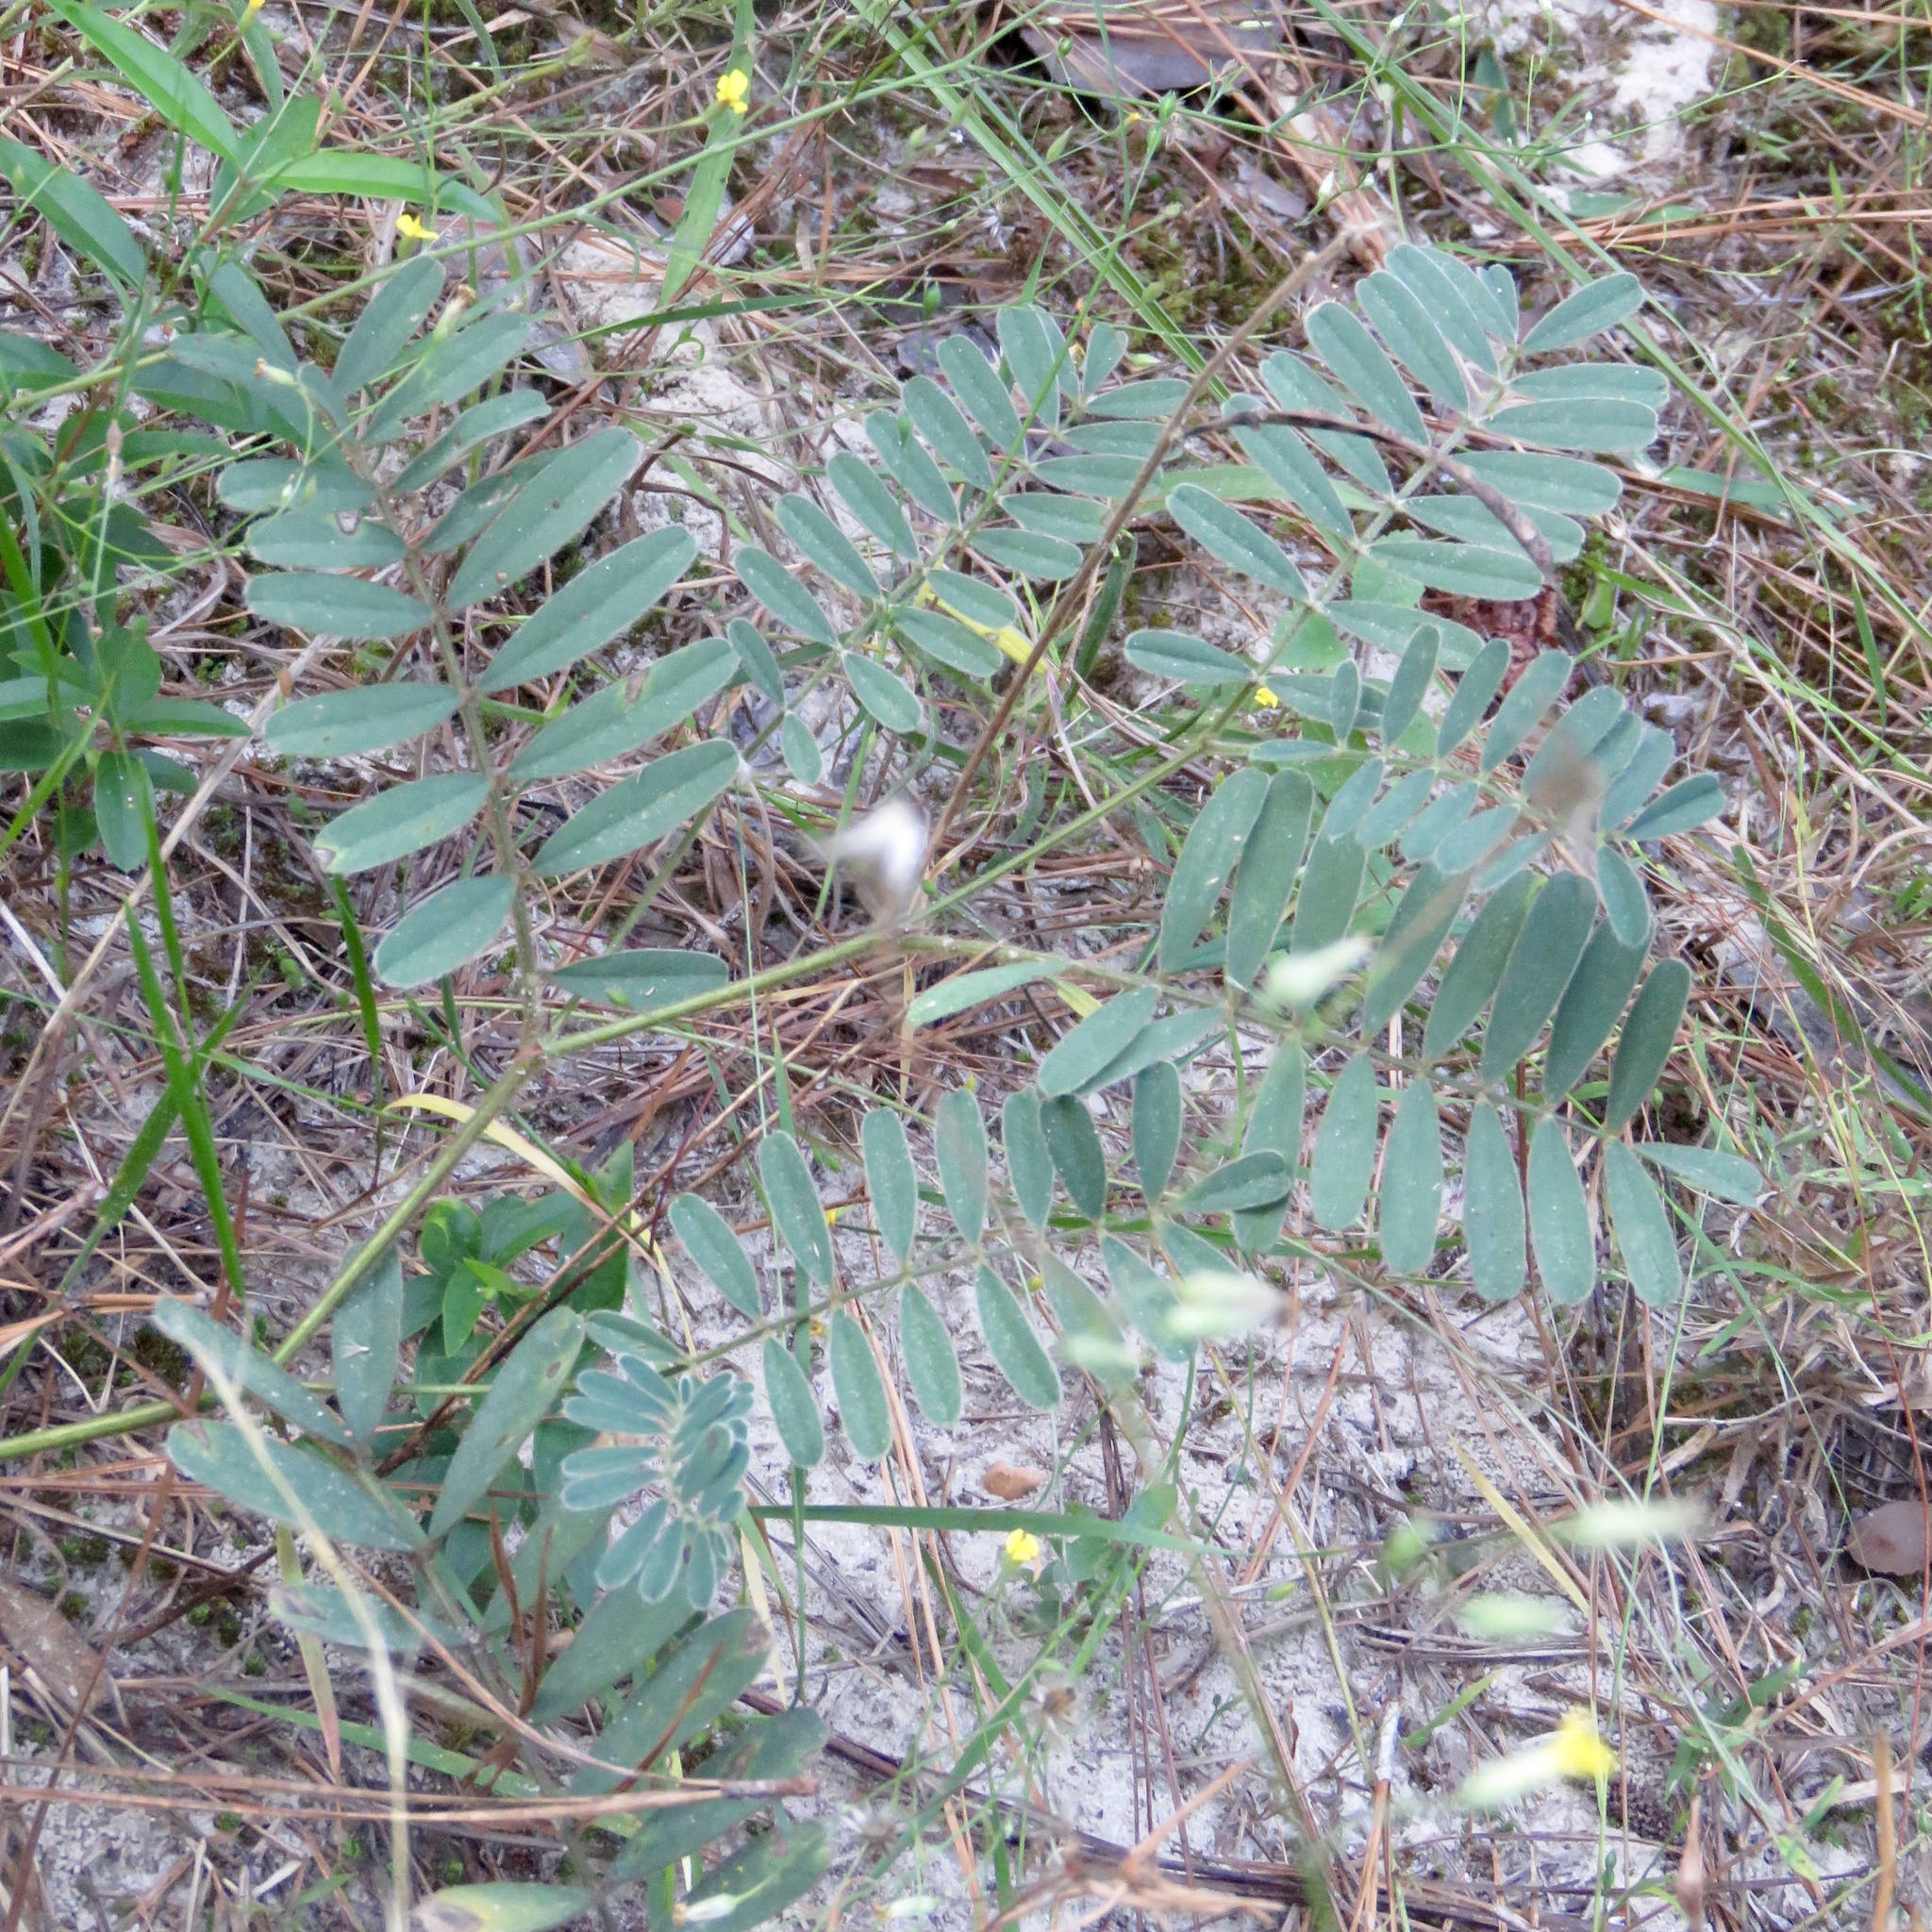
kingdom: Plantae
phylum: Tracheophyta
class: Magnoliopsida
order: Fabales
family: Fabaceae
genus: Tephrosia
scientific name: Tephrosia onobrychoides
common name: Multi-bloom hoary-pea
